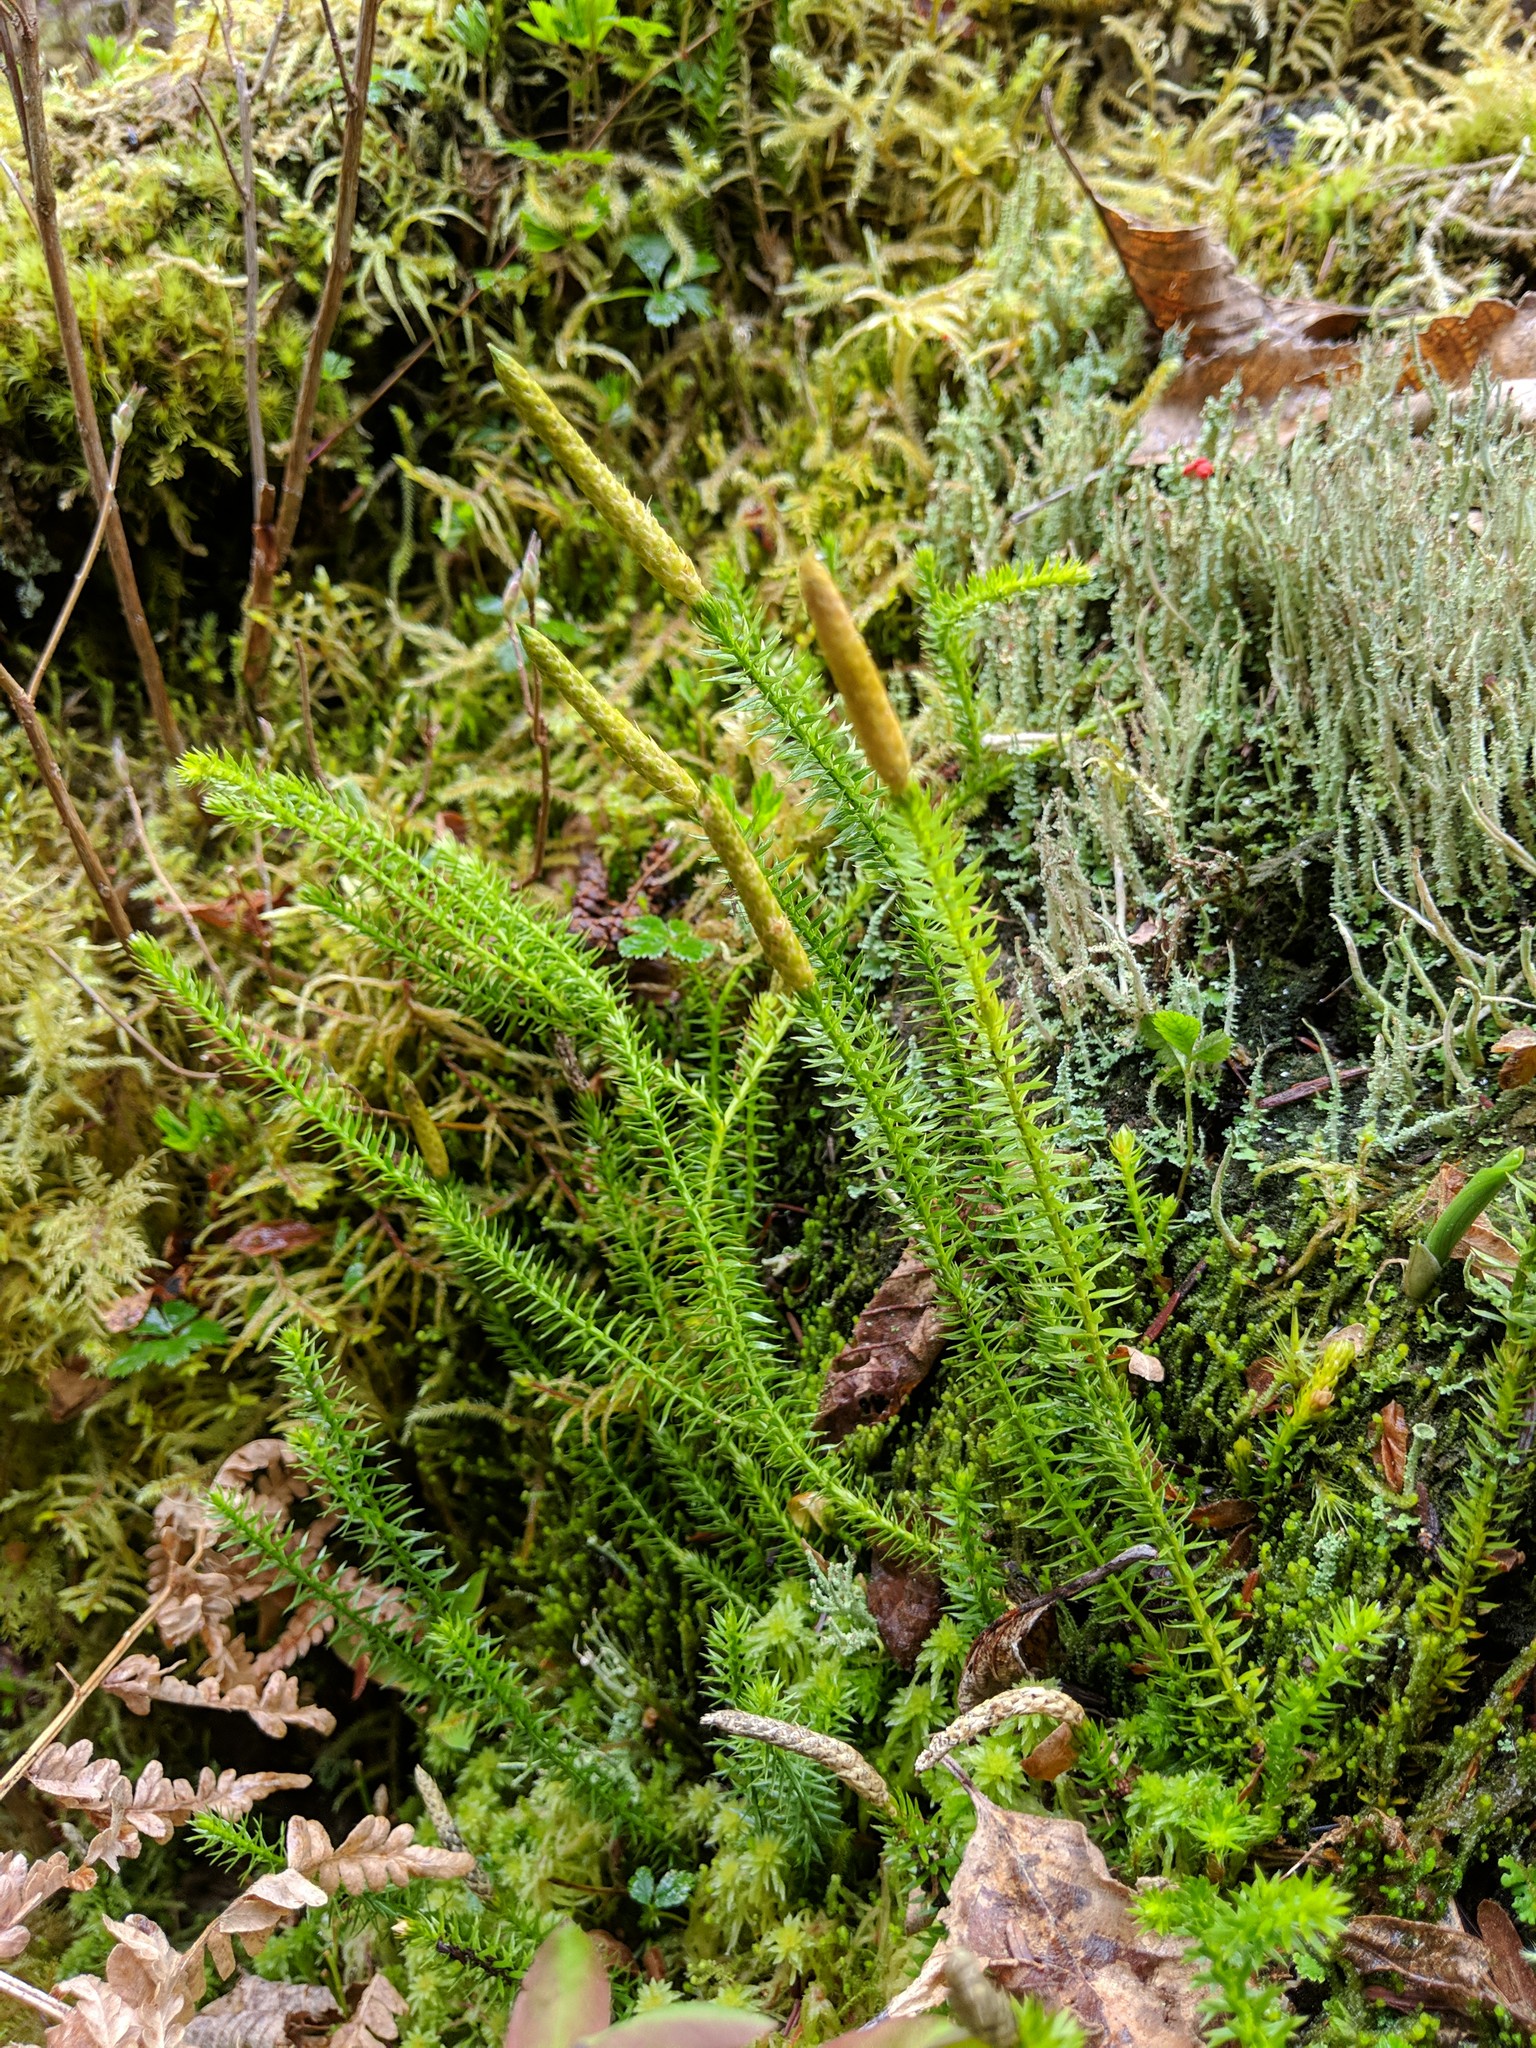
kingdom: Plantae
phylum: Tracheophyta
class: Lycopodiopsida
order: Lycopodiales
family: Lycopodiaceae
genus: Spinulum
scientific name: Spinulum annotinum
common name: Interrupted club-moss
